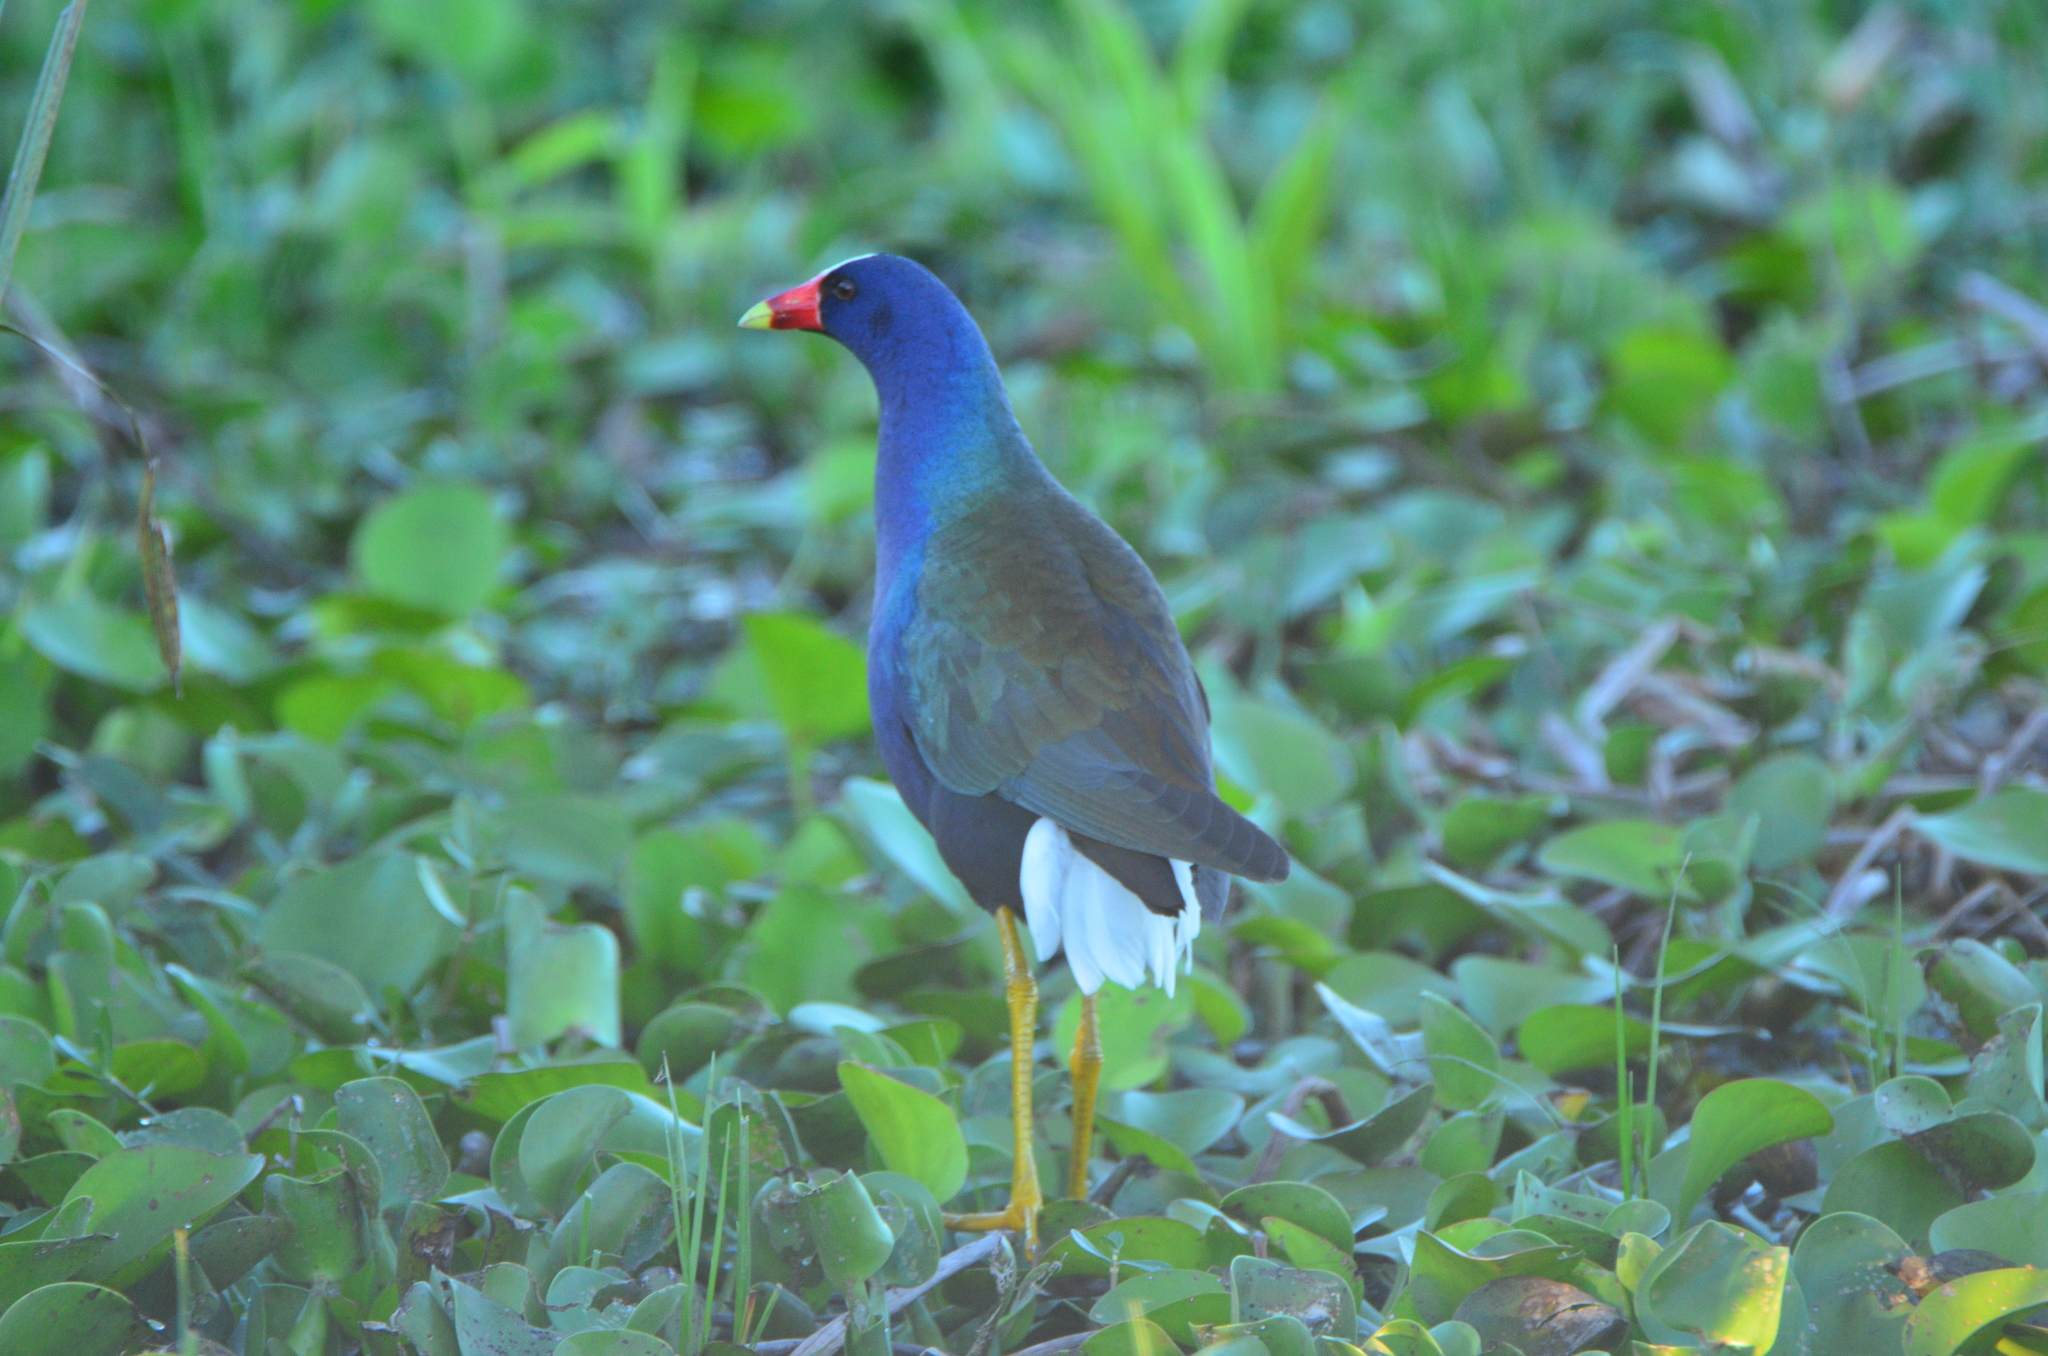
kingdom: Animalia
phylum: Chordata
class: Aves
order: Gruiformes
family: Rallidae
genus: Porphyrio
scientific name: Porphyrio martinica
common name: Purple gallinule
